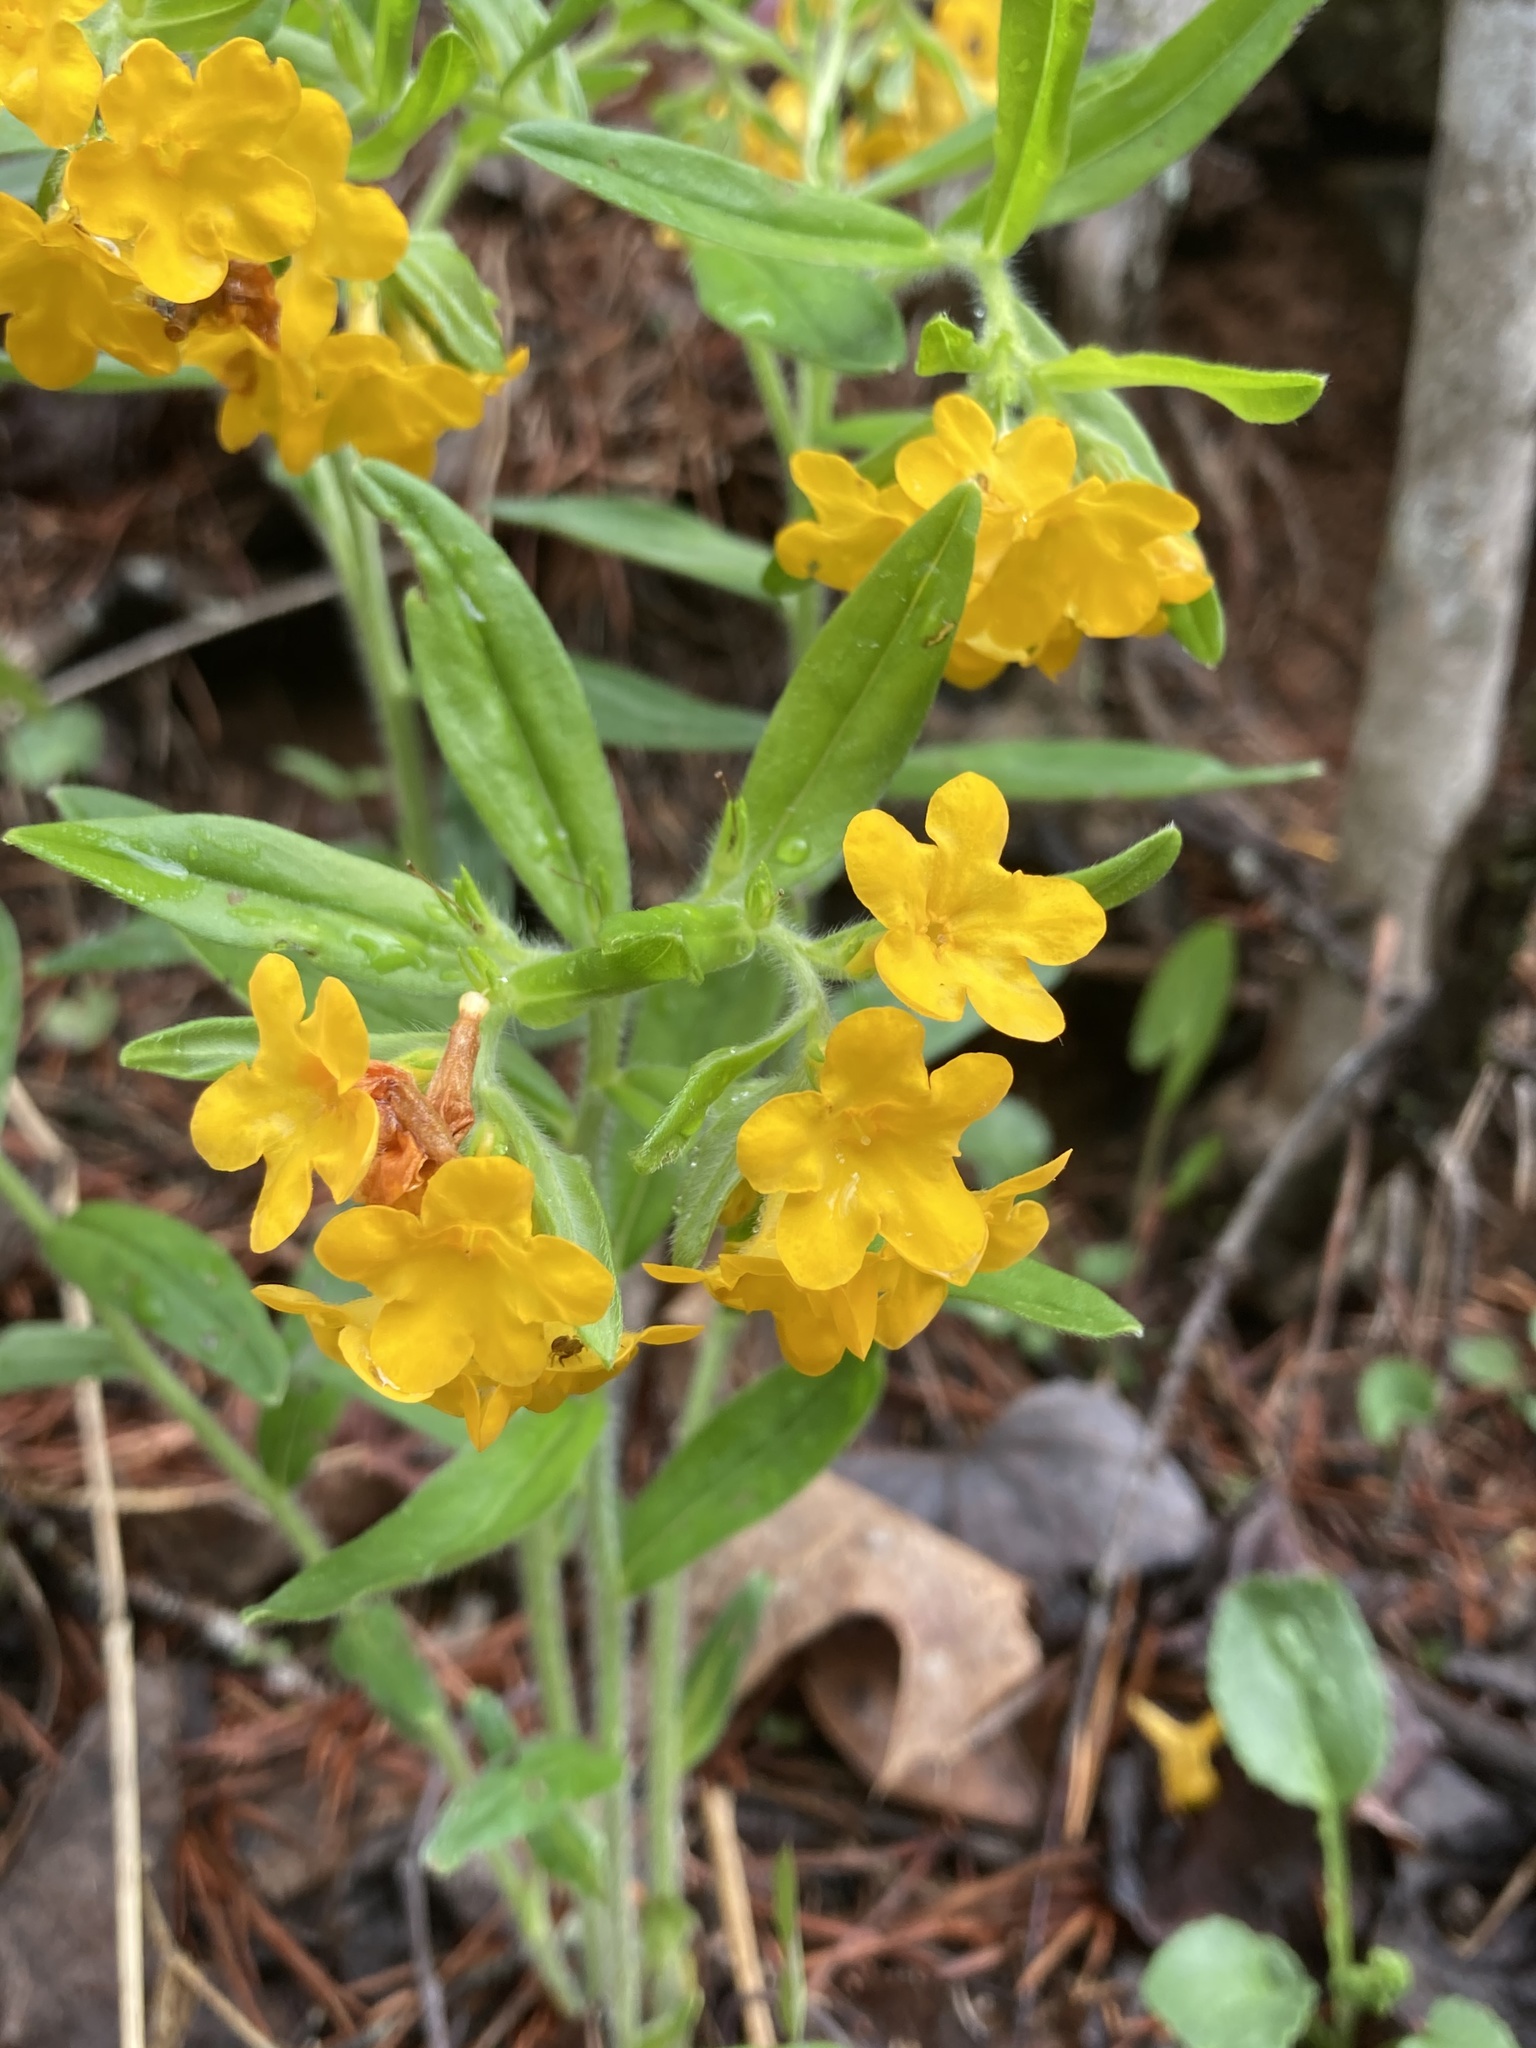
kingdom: Plantae
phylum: Tracheophyta
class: Magnoliopsida
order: Boraginales
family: Boraginaceae
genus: Lithospermum
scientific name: Lithospermum canescens
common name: Hoary puccoon
